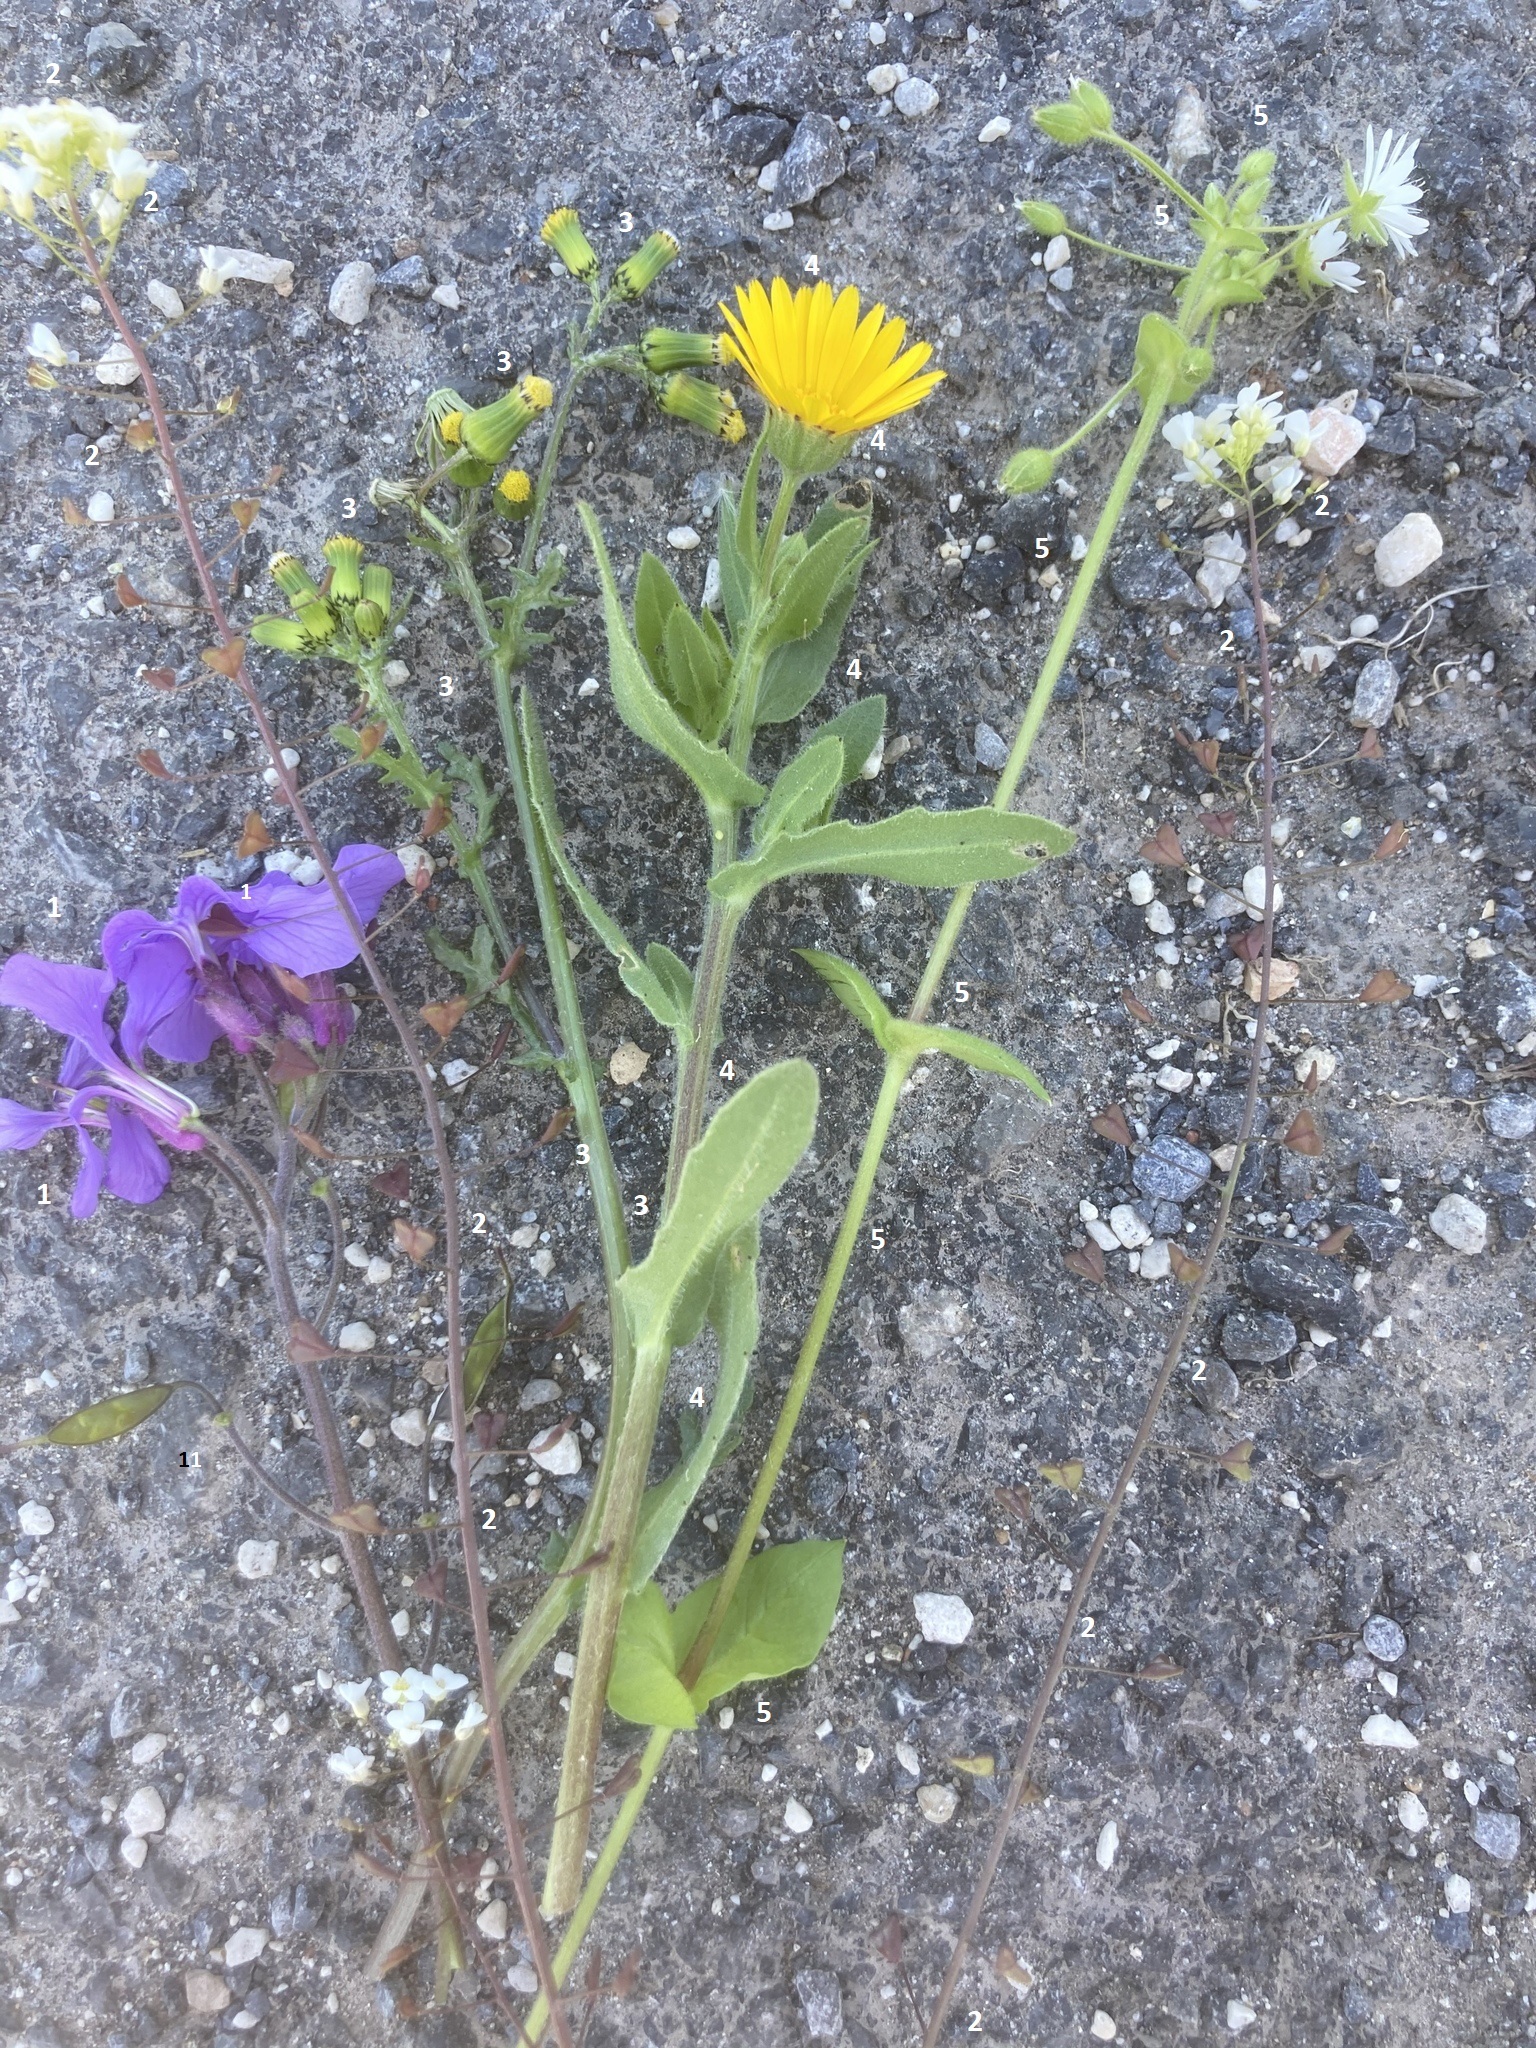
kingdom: Plantae
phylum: Tracheophyta
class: Magnoliopsida
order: Brassicales
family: Brassicaceae
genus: Lunaria
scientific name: Lunaria annua
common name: Honesty
